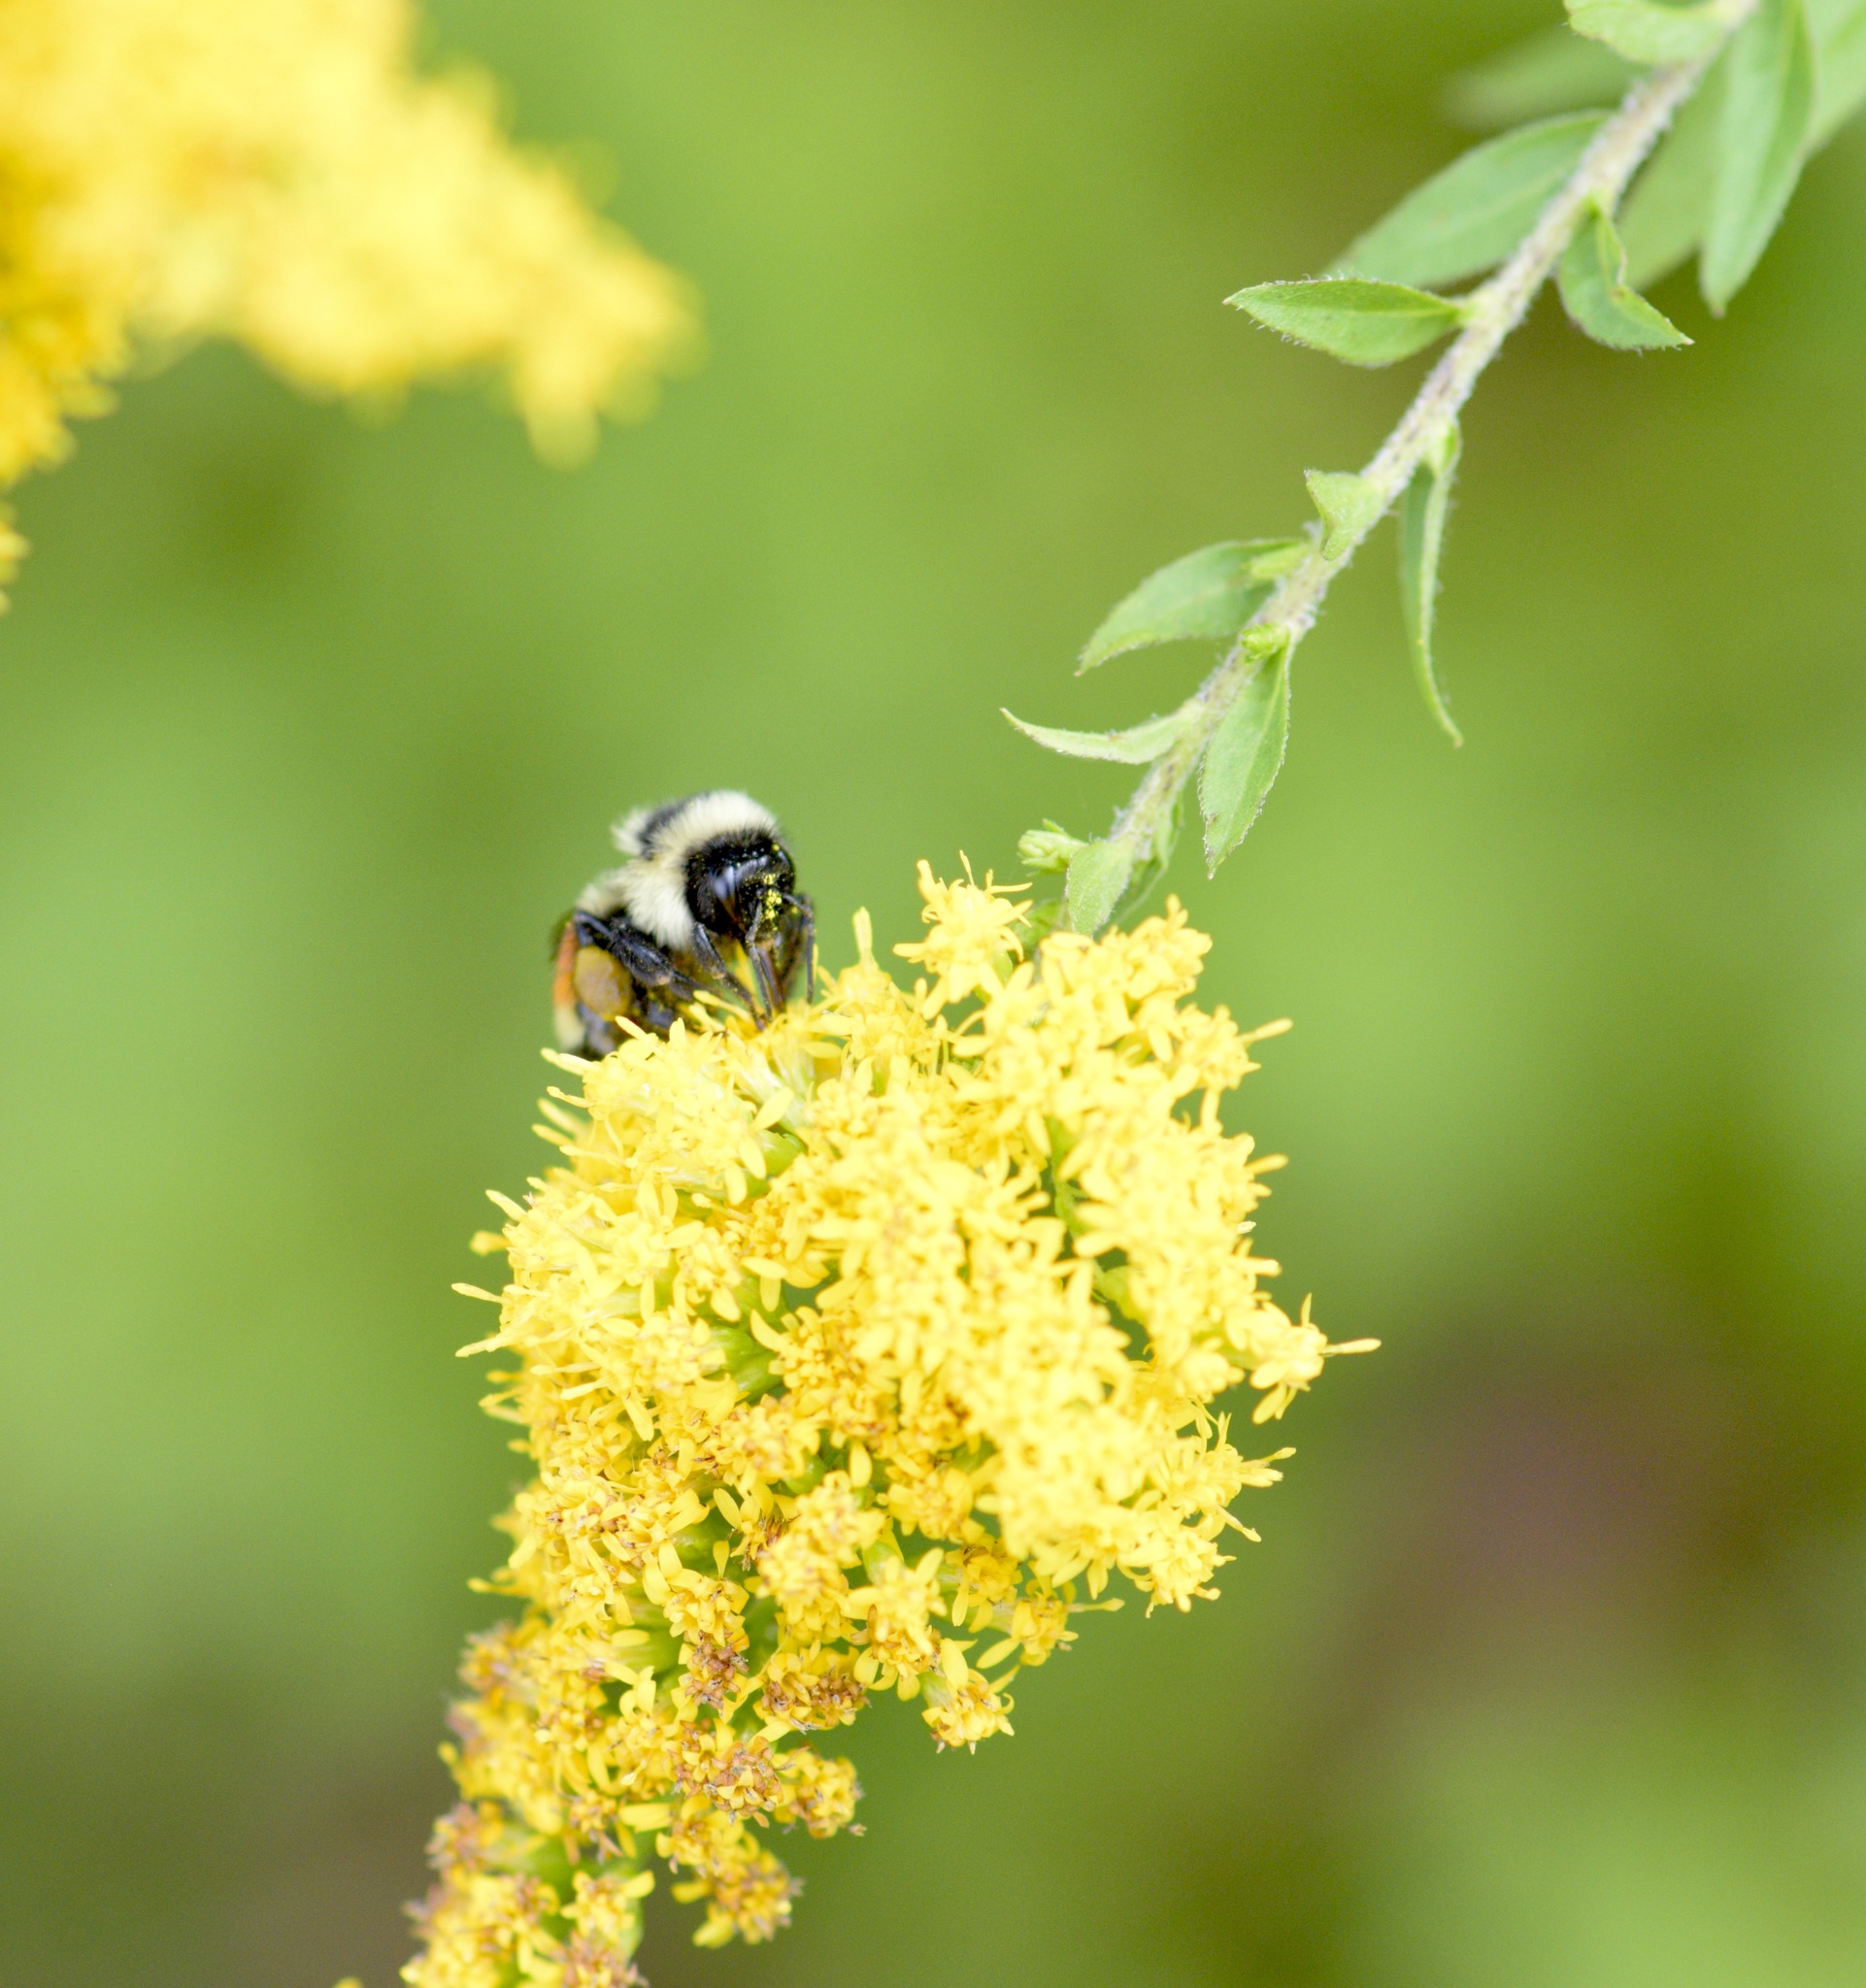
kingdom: Animalia
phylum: Arthropoda
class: Insecta
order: Hymenoptera
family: Apidae
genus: Bombus
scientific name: Bombus ternarius
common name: Tri-colored bumble bee
